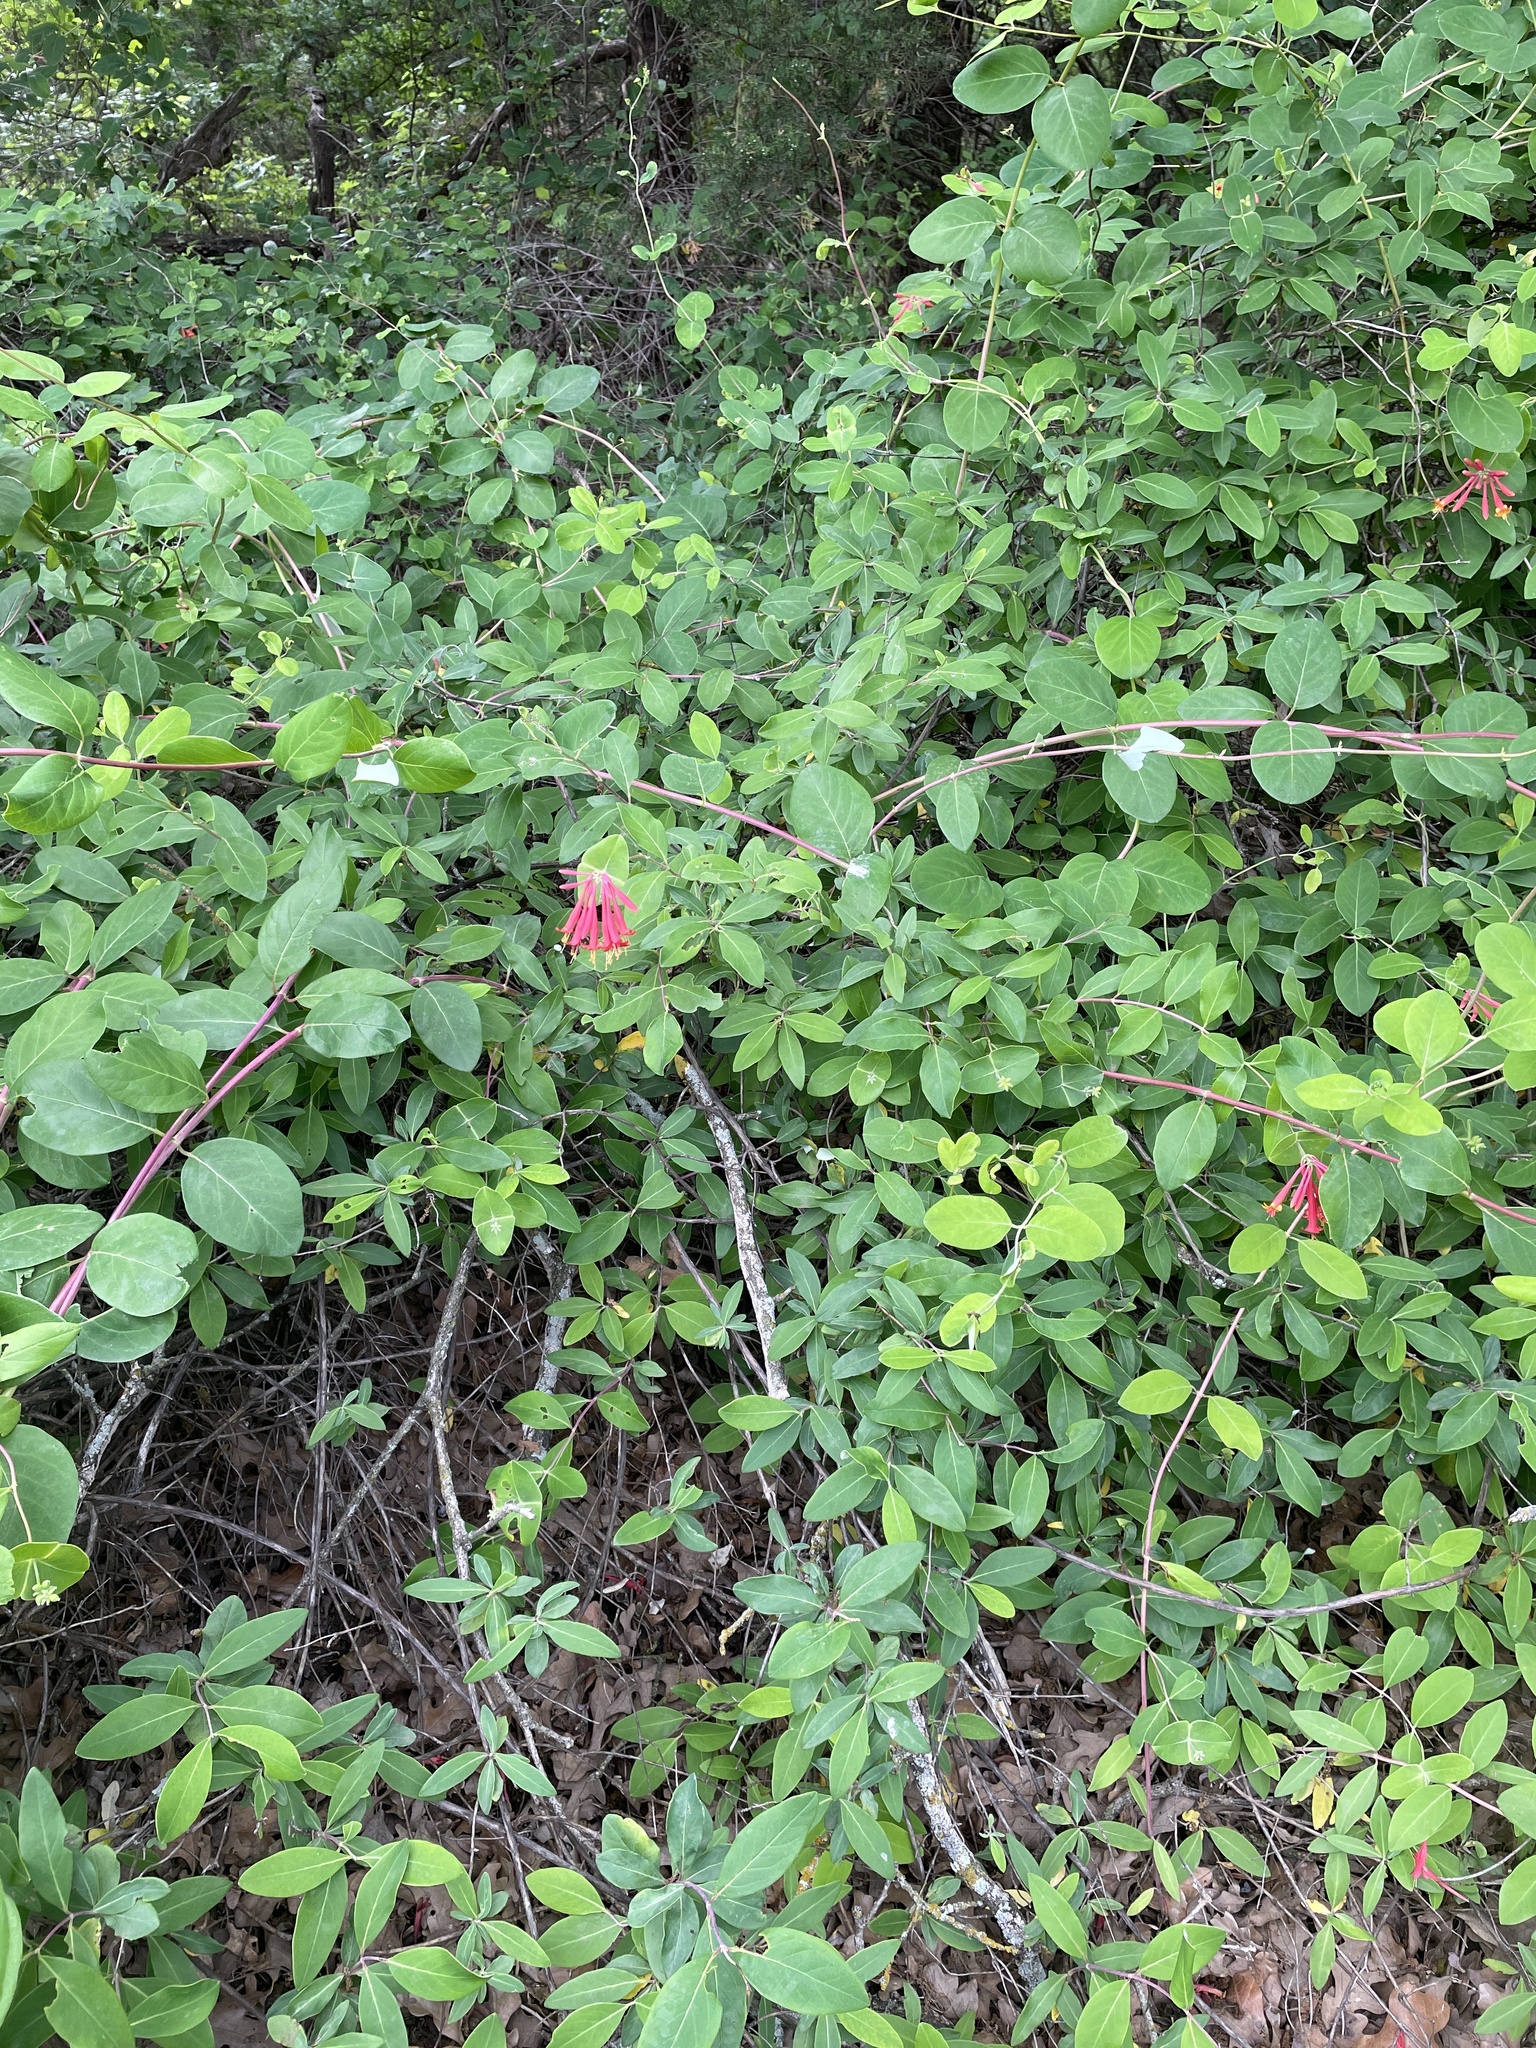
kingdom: Plantae
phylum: Tracheophyta
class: Magnoliopsida
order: Dipsacales
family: Caprifoliaceae
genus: Lonicera
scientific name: Lonicera sempervirens
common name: Coral honeysuckle
